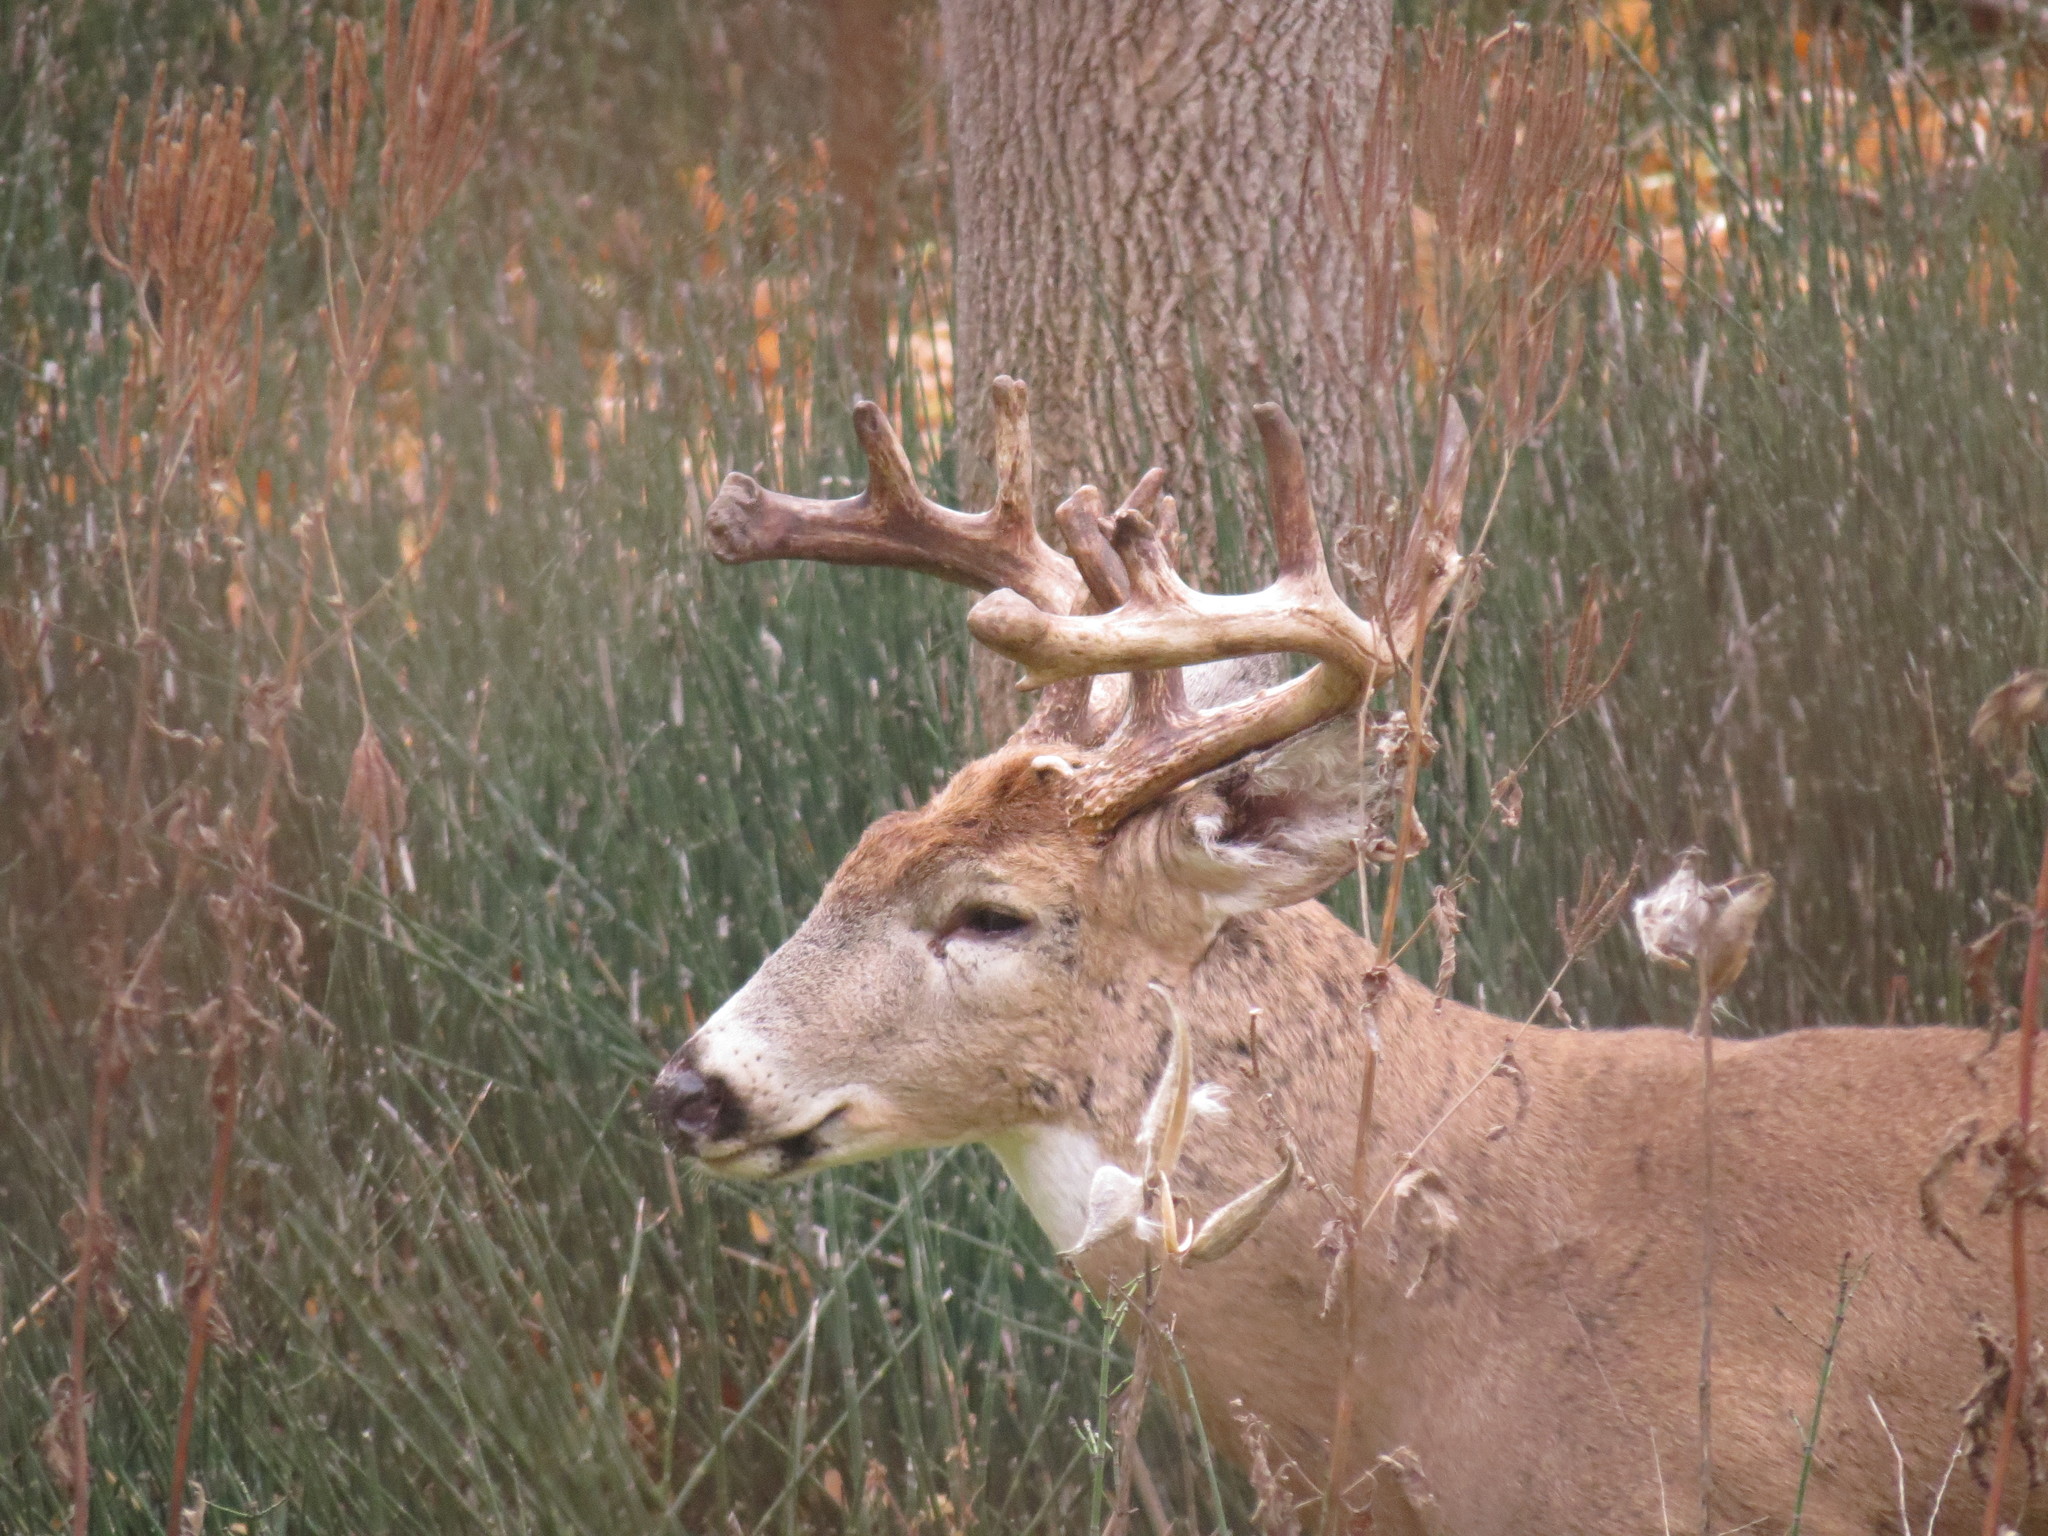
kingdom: Animalia
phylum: Chordata
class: Mammalia
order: Artiodactyla
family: Cervidae
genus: Odocoileus
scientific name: Odocoileus virginianus
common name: White-tailed deer
